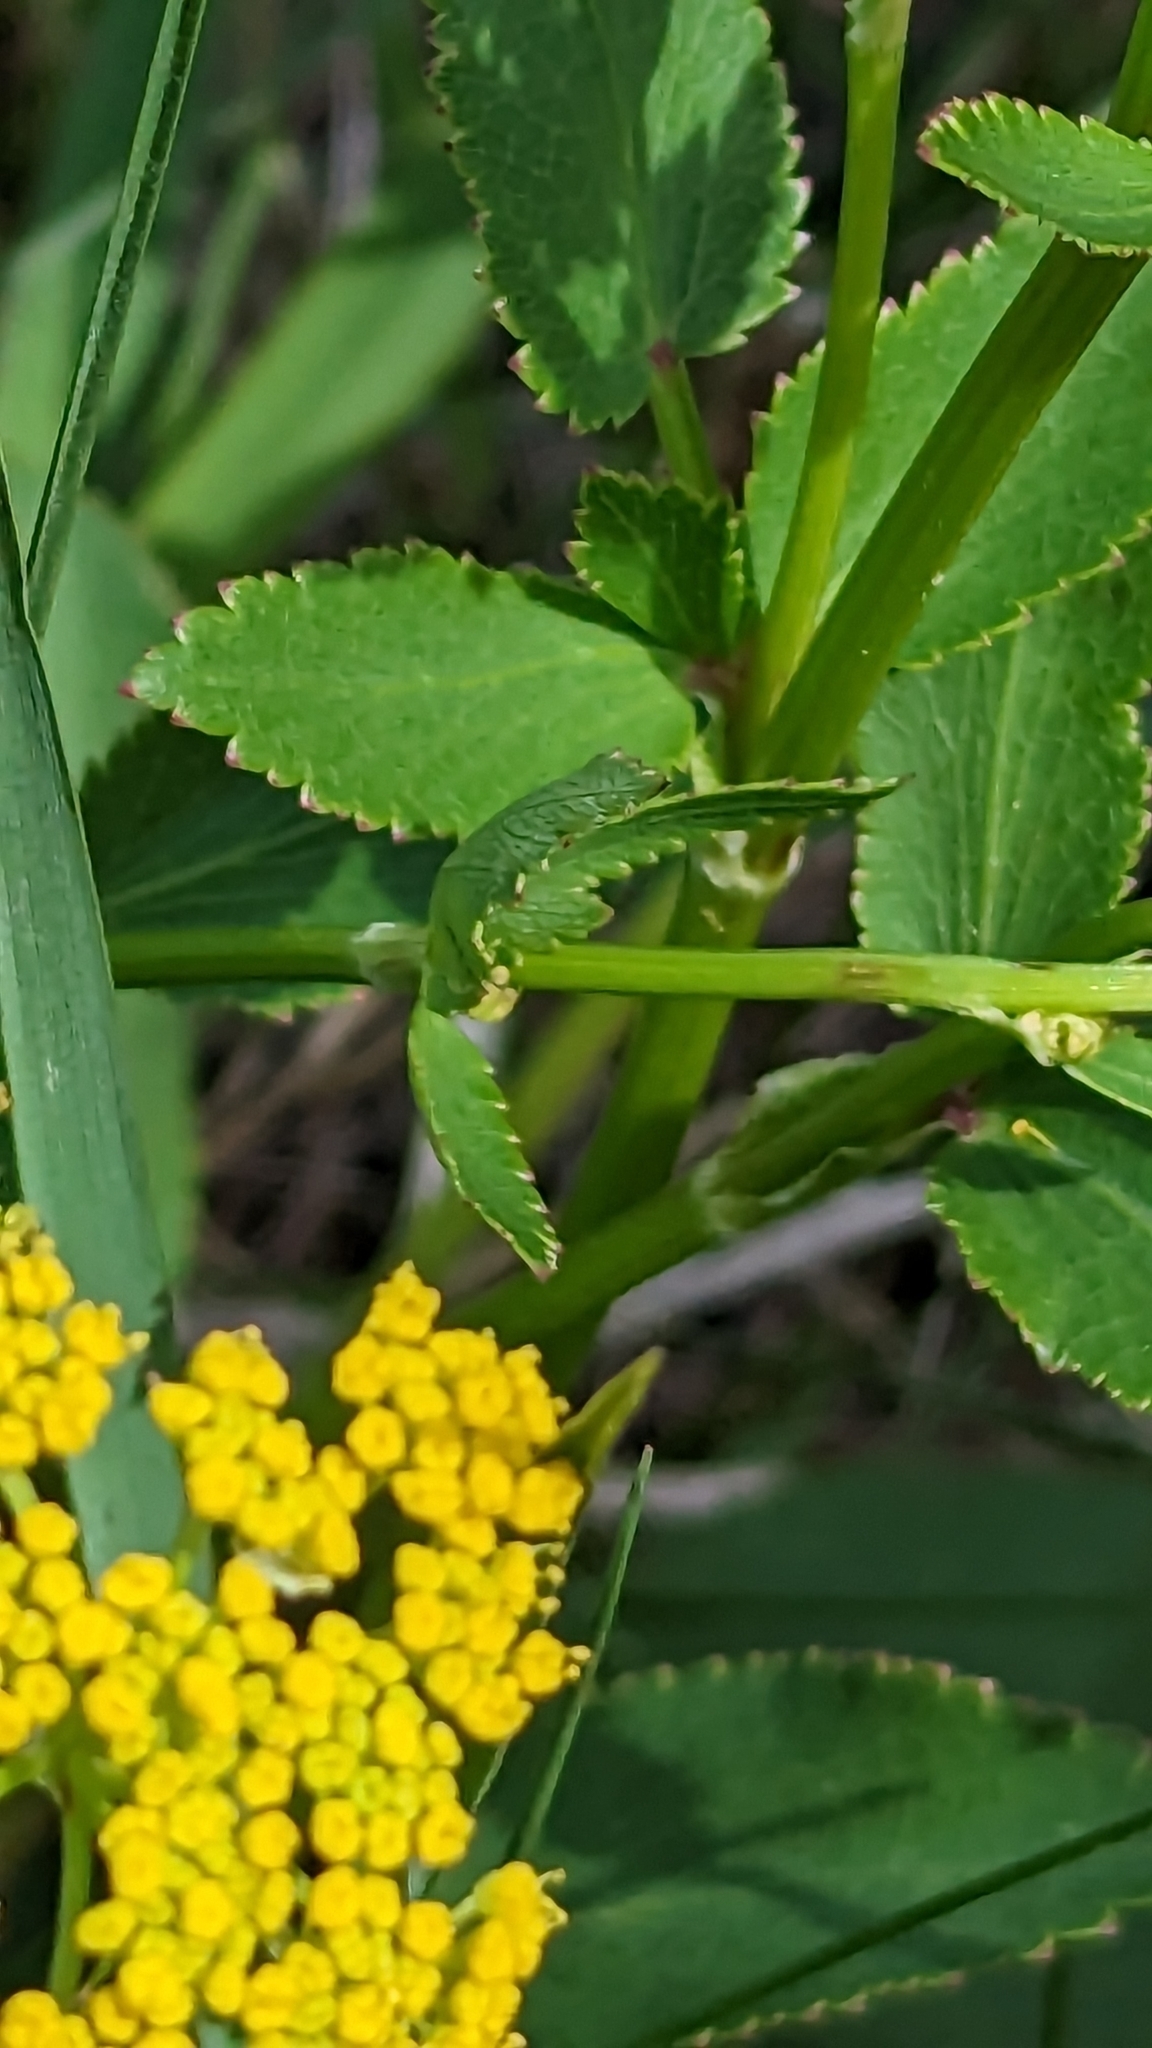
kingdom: Plantae
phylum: Tracheophyta
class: Magnoliopsida
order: Apiales
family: Apiaceae
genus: Zizia
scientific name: Zizia aptera
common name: Heart-leaved alexanders
